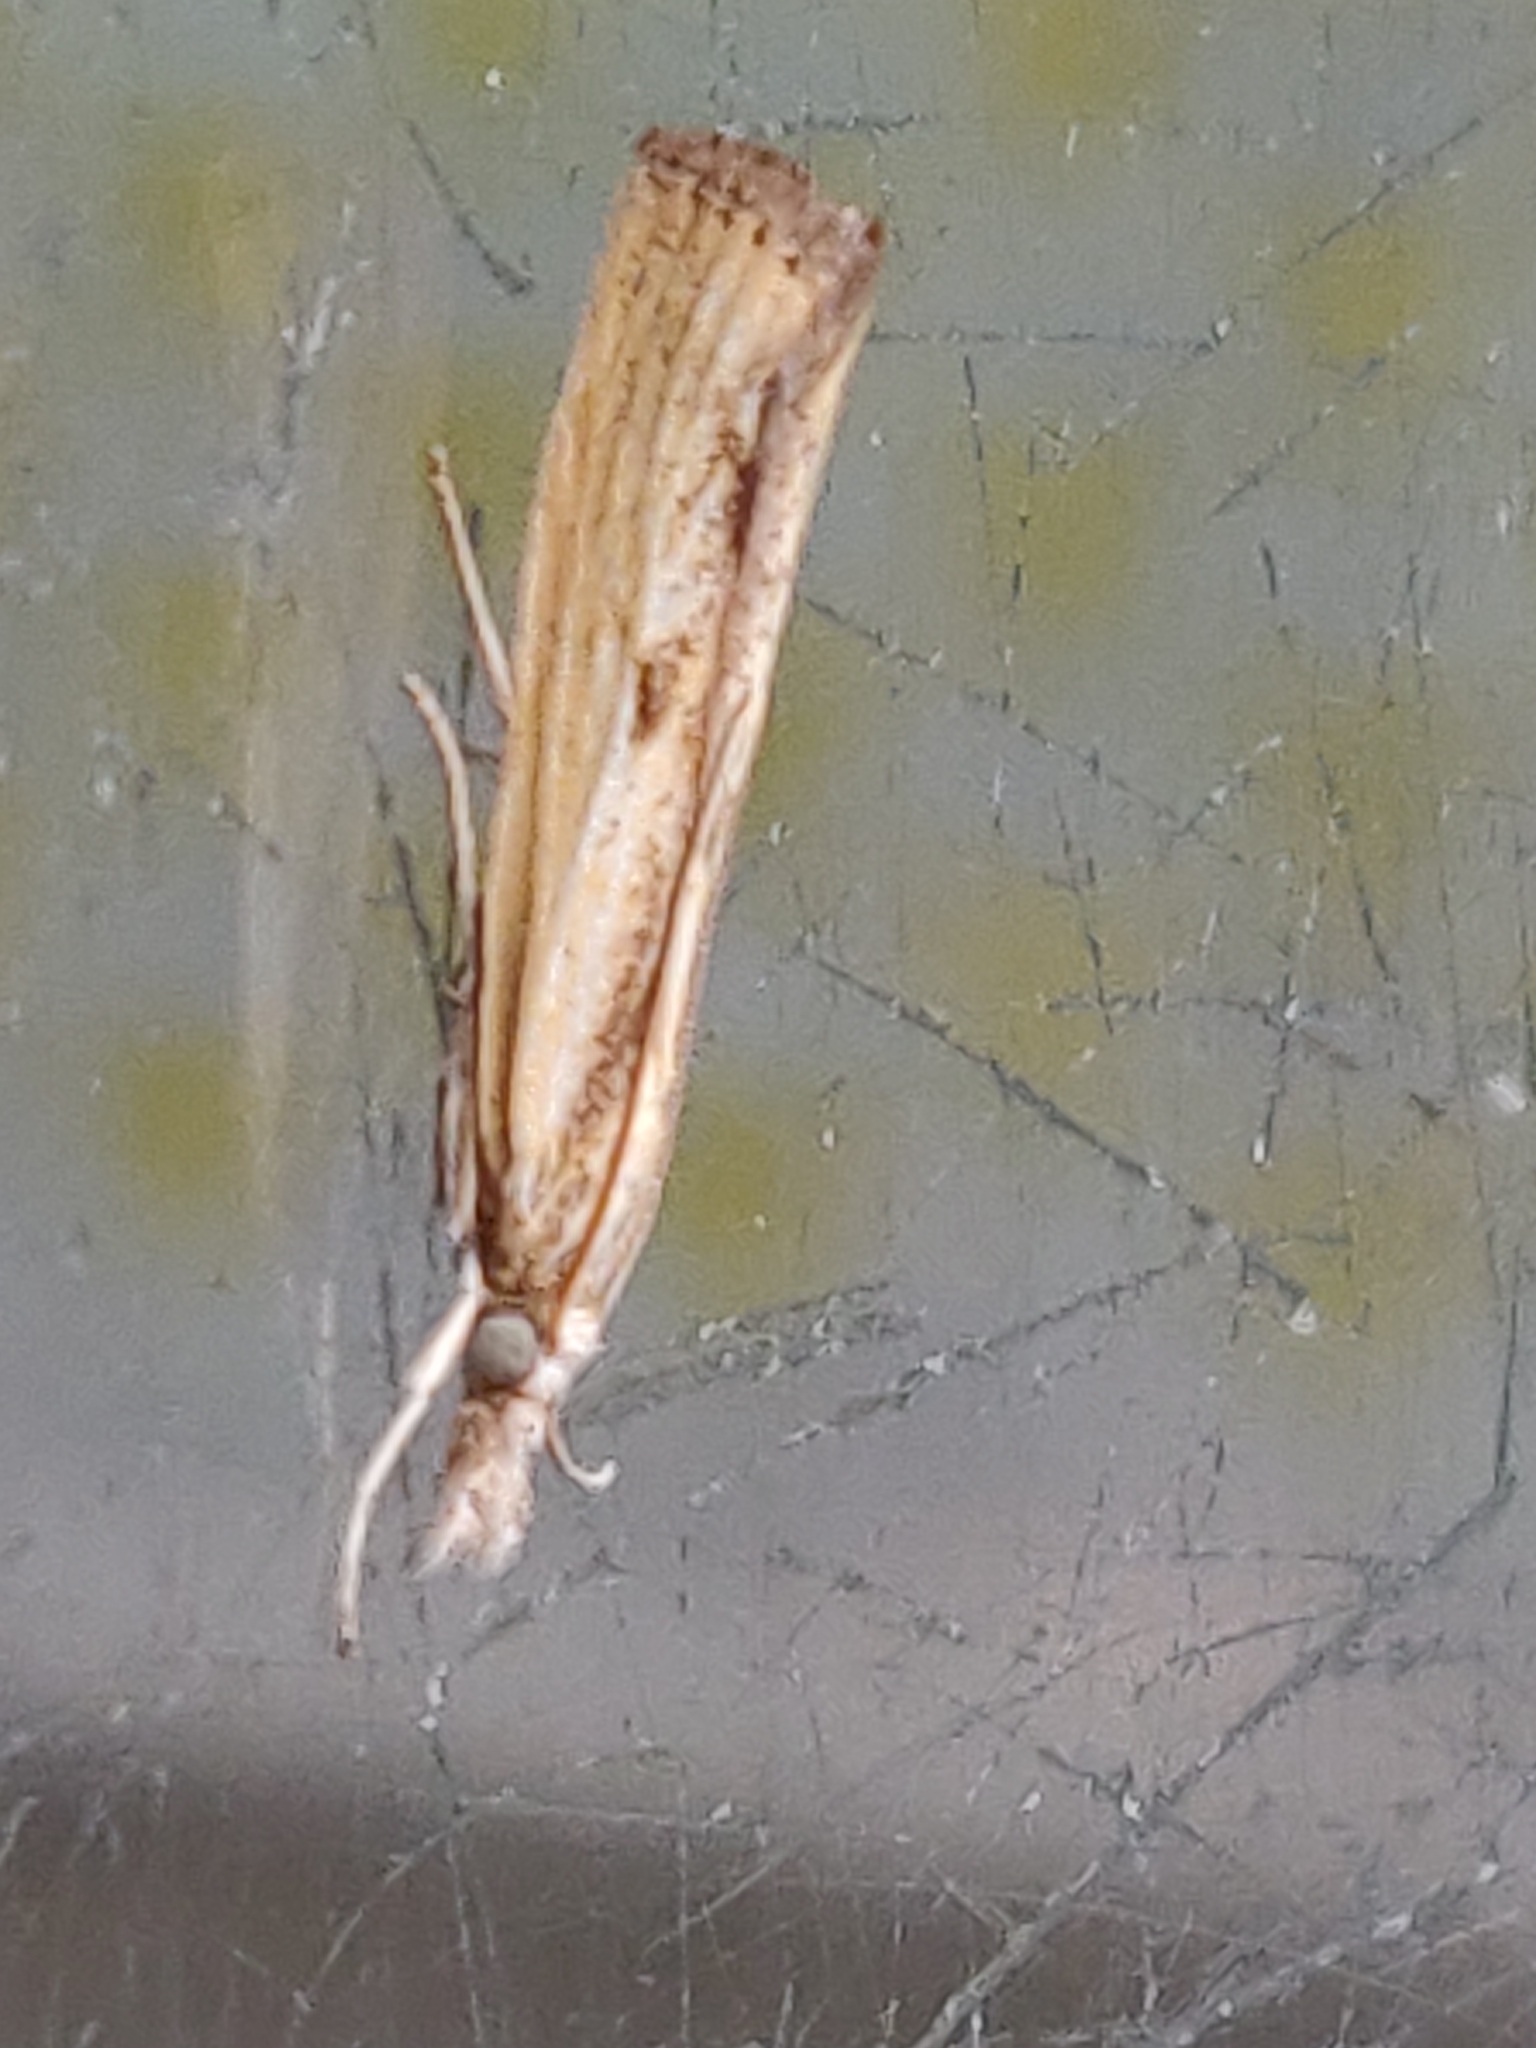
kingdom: Animalia
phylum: Arthropoda
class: Insecta
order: Lepidoptera
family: Crambidae
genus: Agriphila
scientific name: Agriphila inquinatella
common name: Barred grass-veneer
